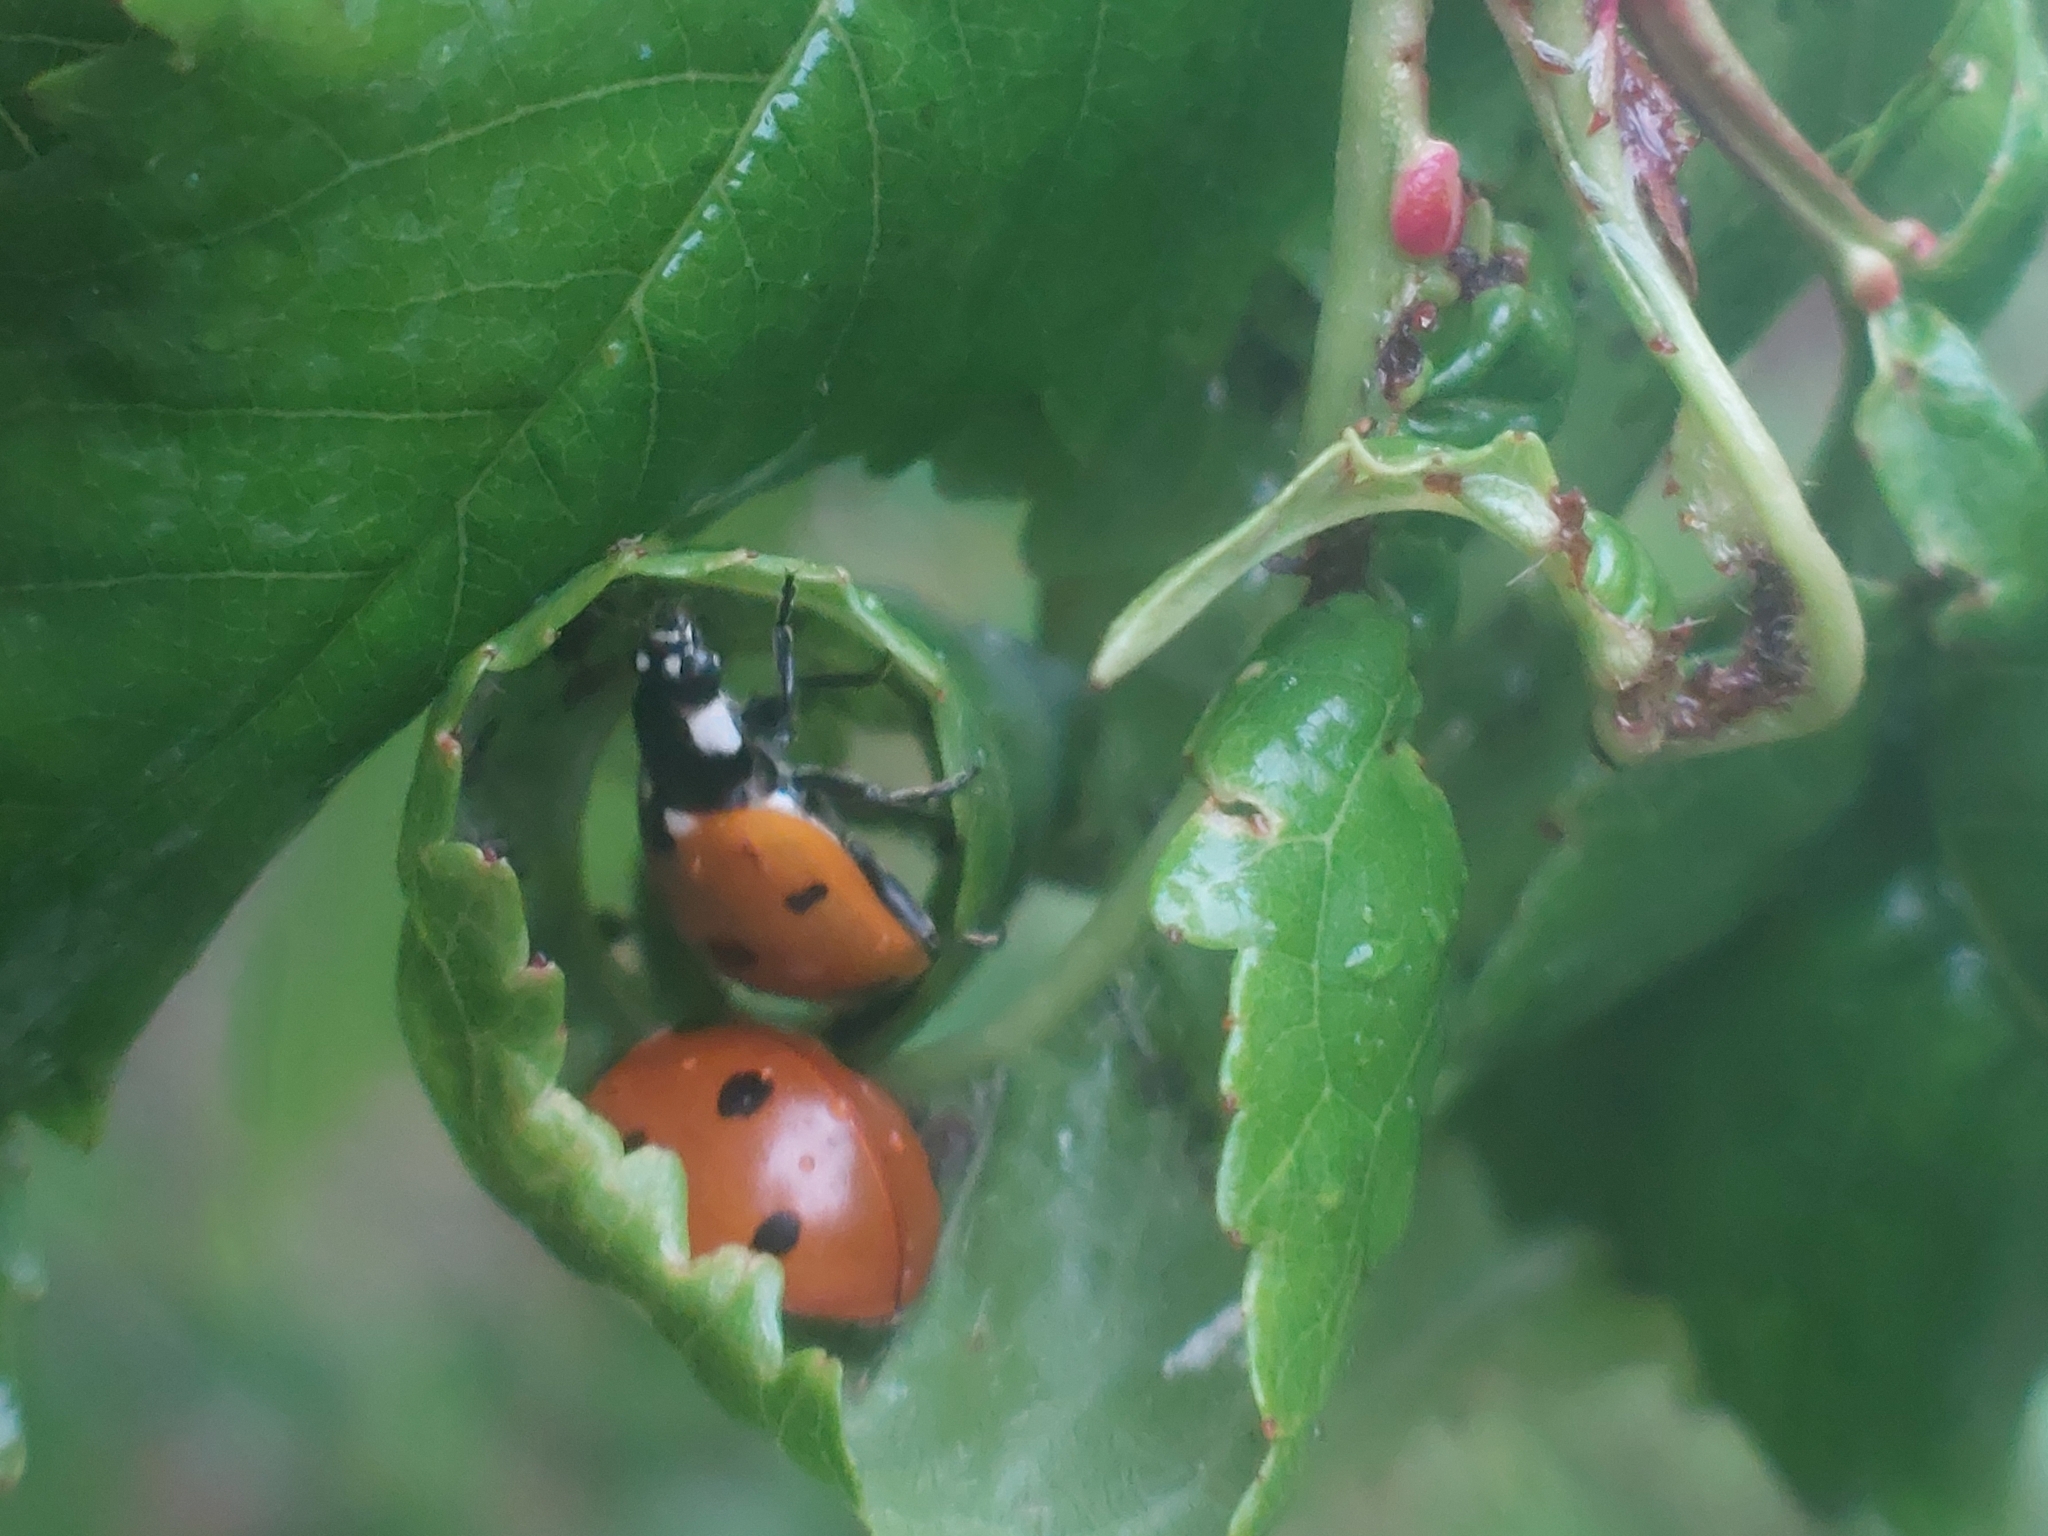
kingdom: Animalia
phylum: Arthropoda
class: Insecta
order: Coleoptera
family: Coccinellidae
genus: Coccinella
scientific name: Coccinella septempunctata
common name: Sevenspotted lady beetle
